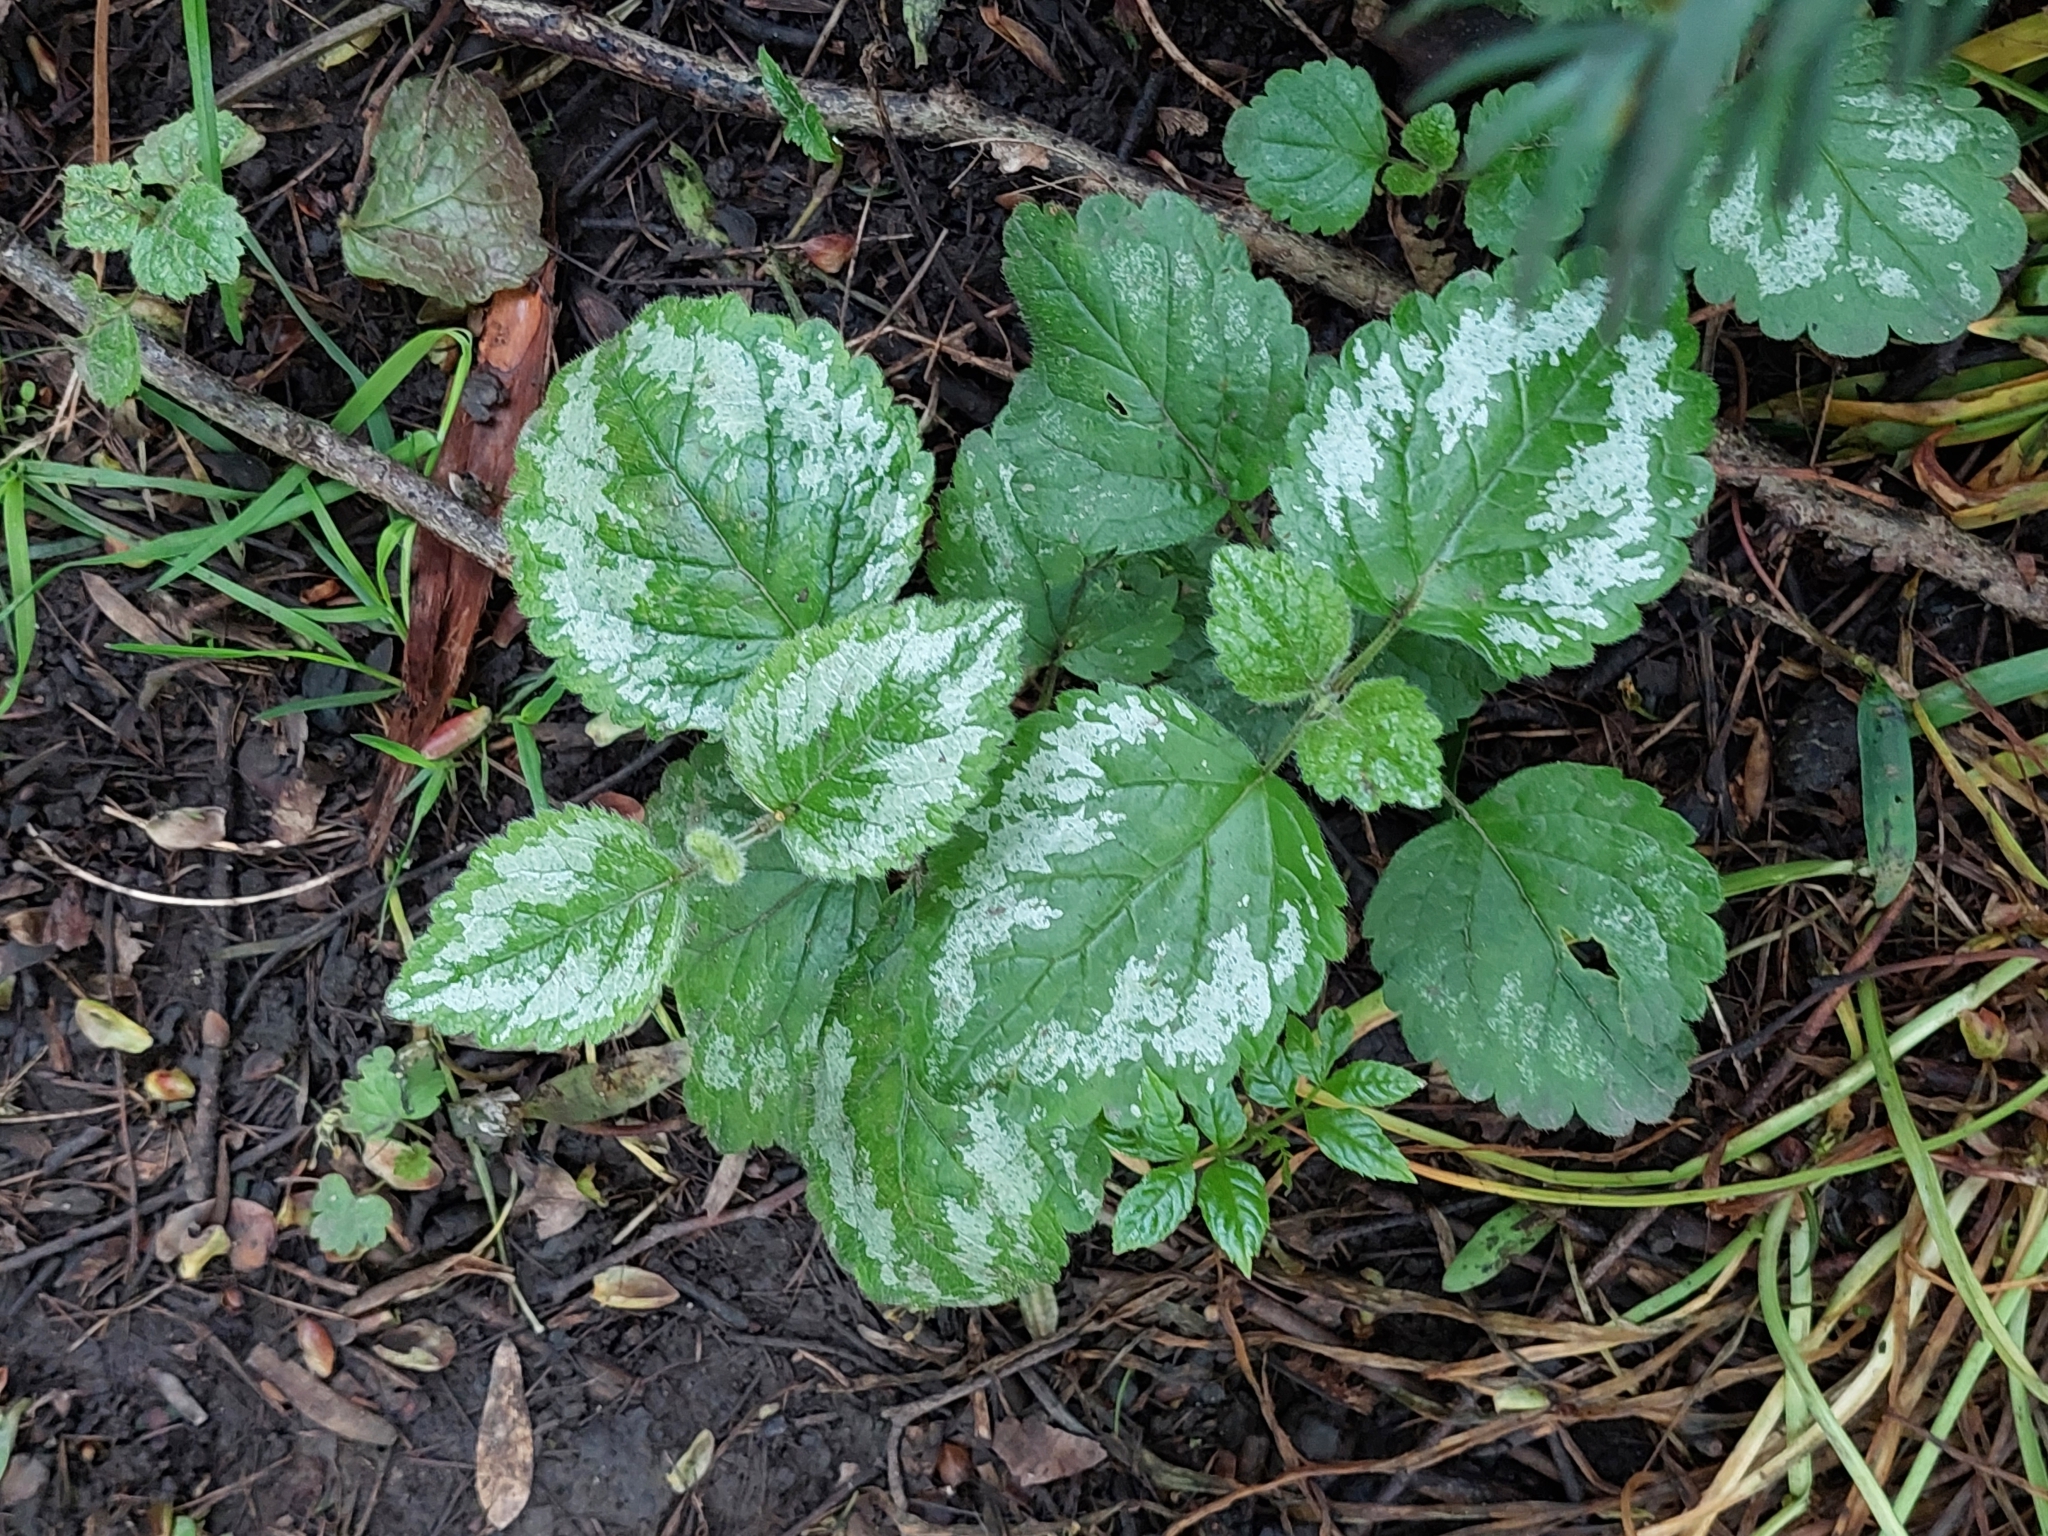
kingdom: Plantae
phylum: Tracheophyta
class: Magnoliopsida
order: Lamiales
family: Lamiaceae
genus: Lamium
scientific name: Lamium galeobdolon
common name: Yellow archangel
